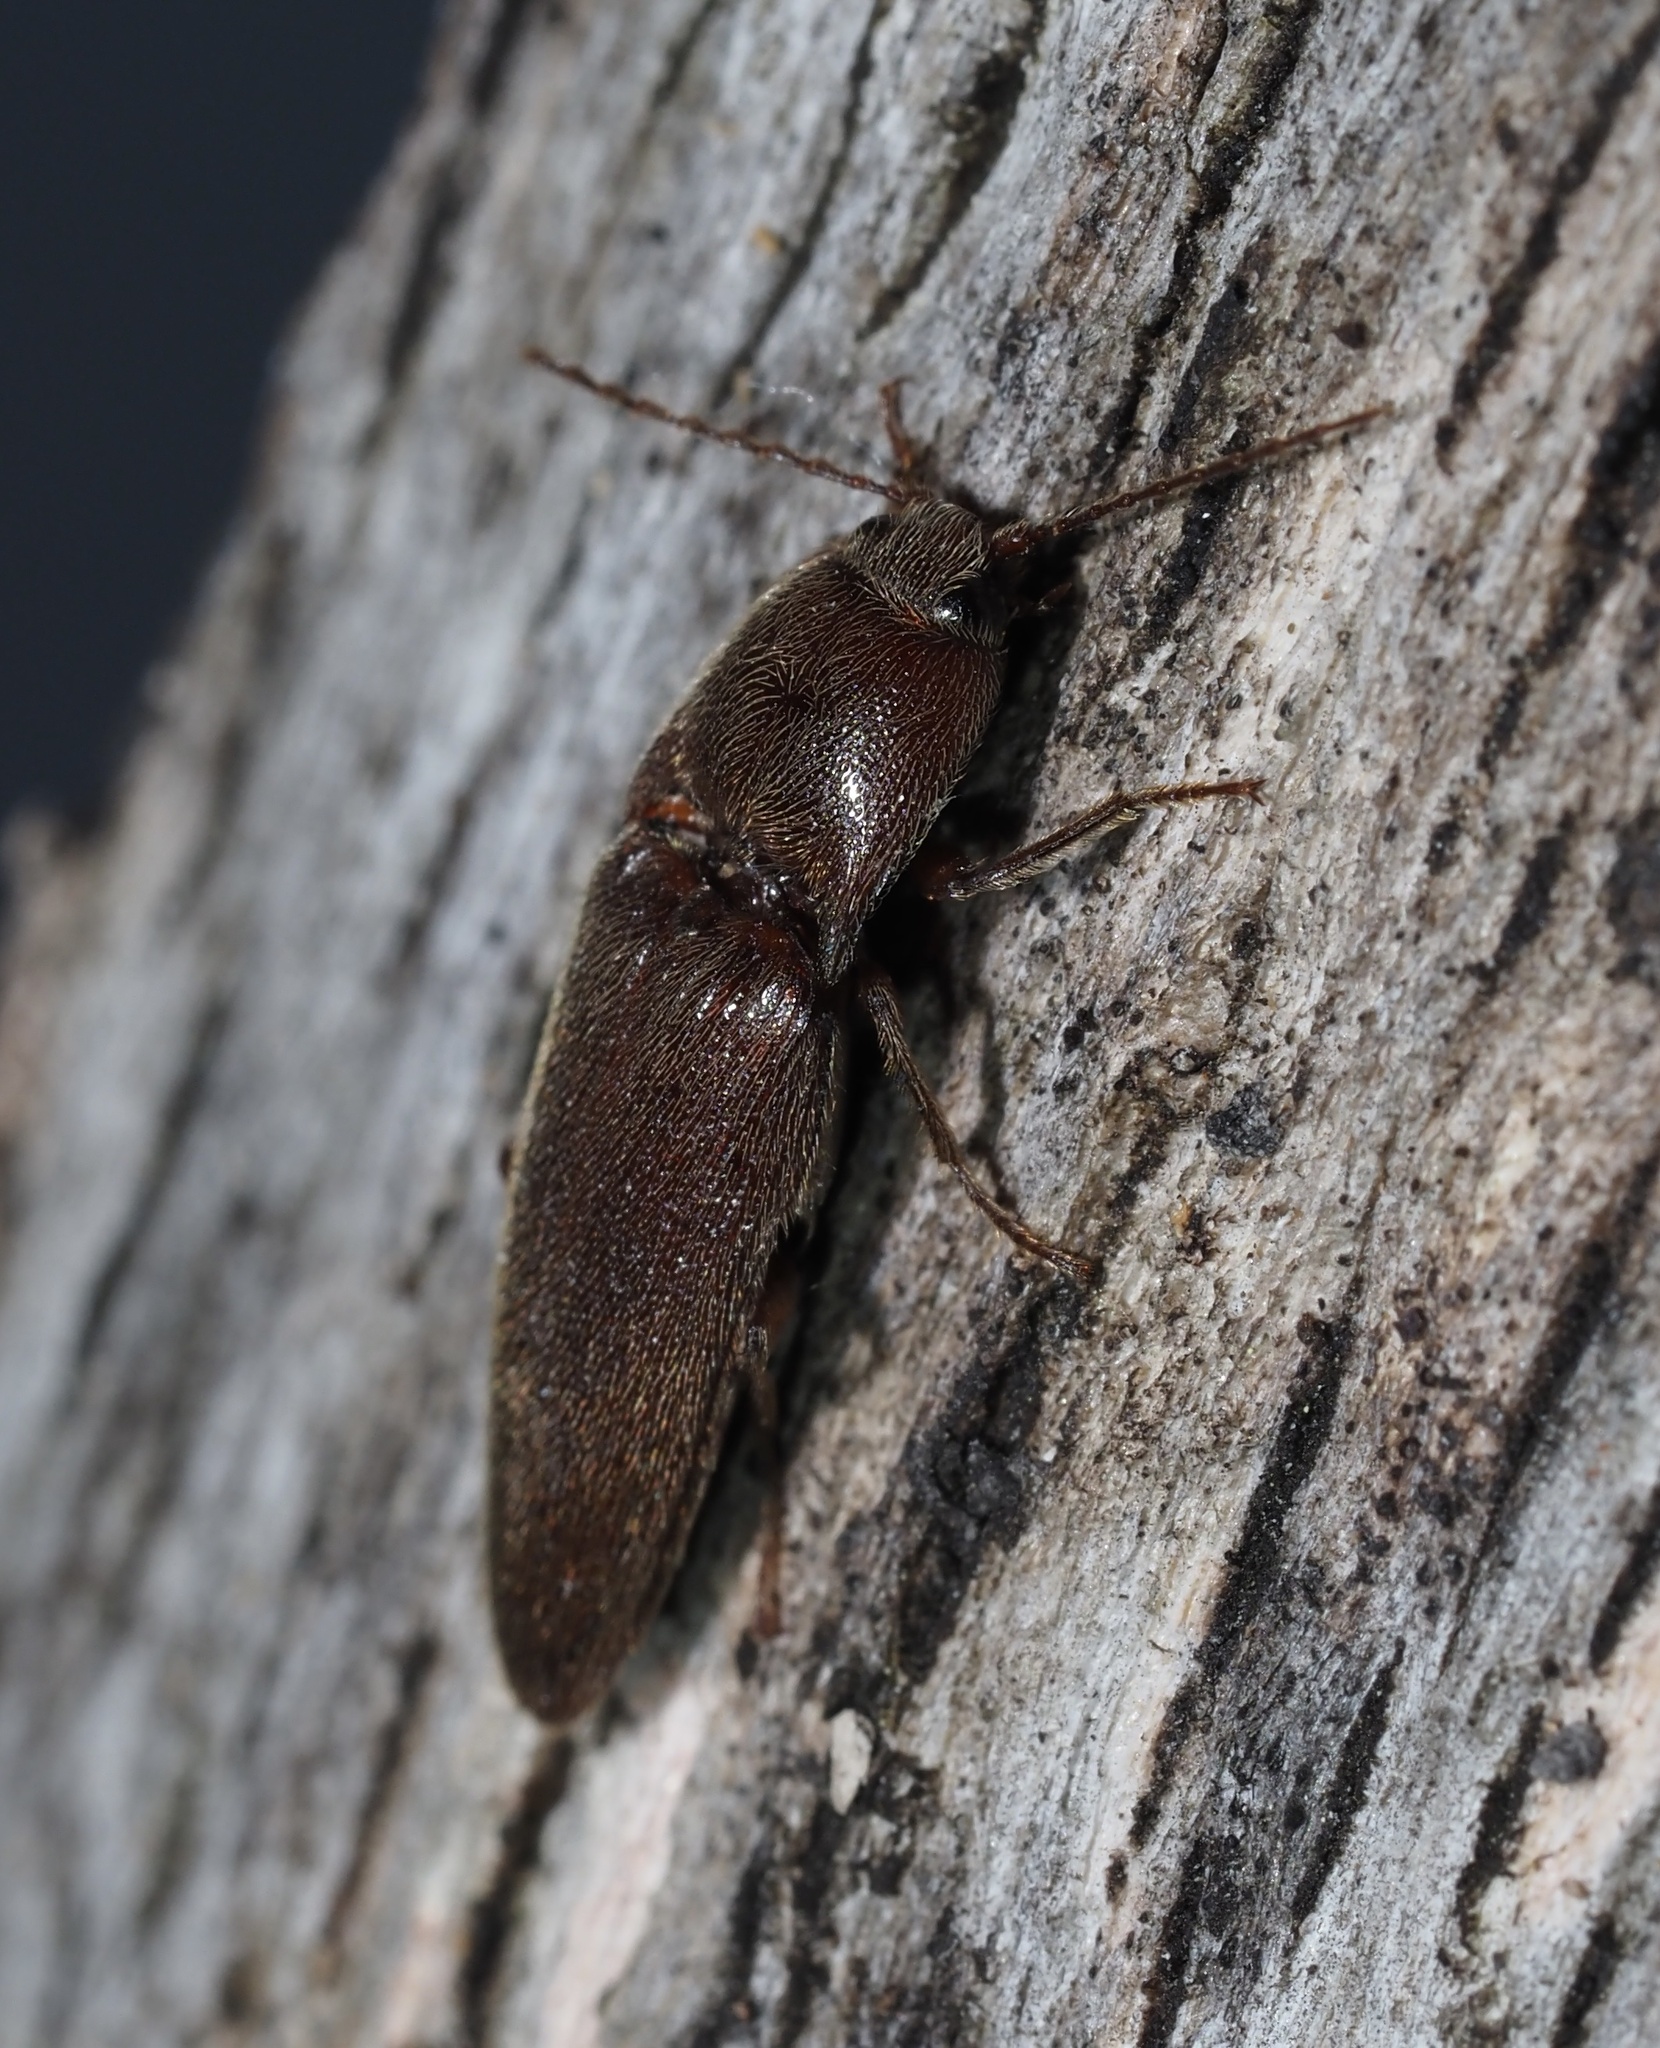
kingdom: Animalia
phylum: Arthropoda
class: Insecta
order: Coleoptera
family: Elateridae
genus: Melanotus
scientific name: Melanotus
